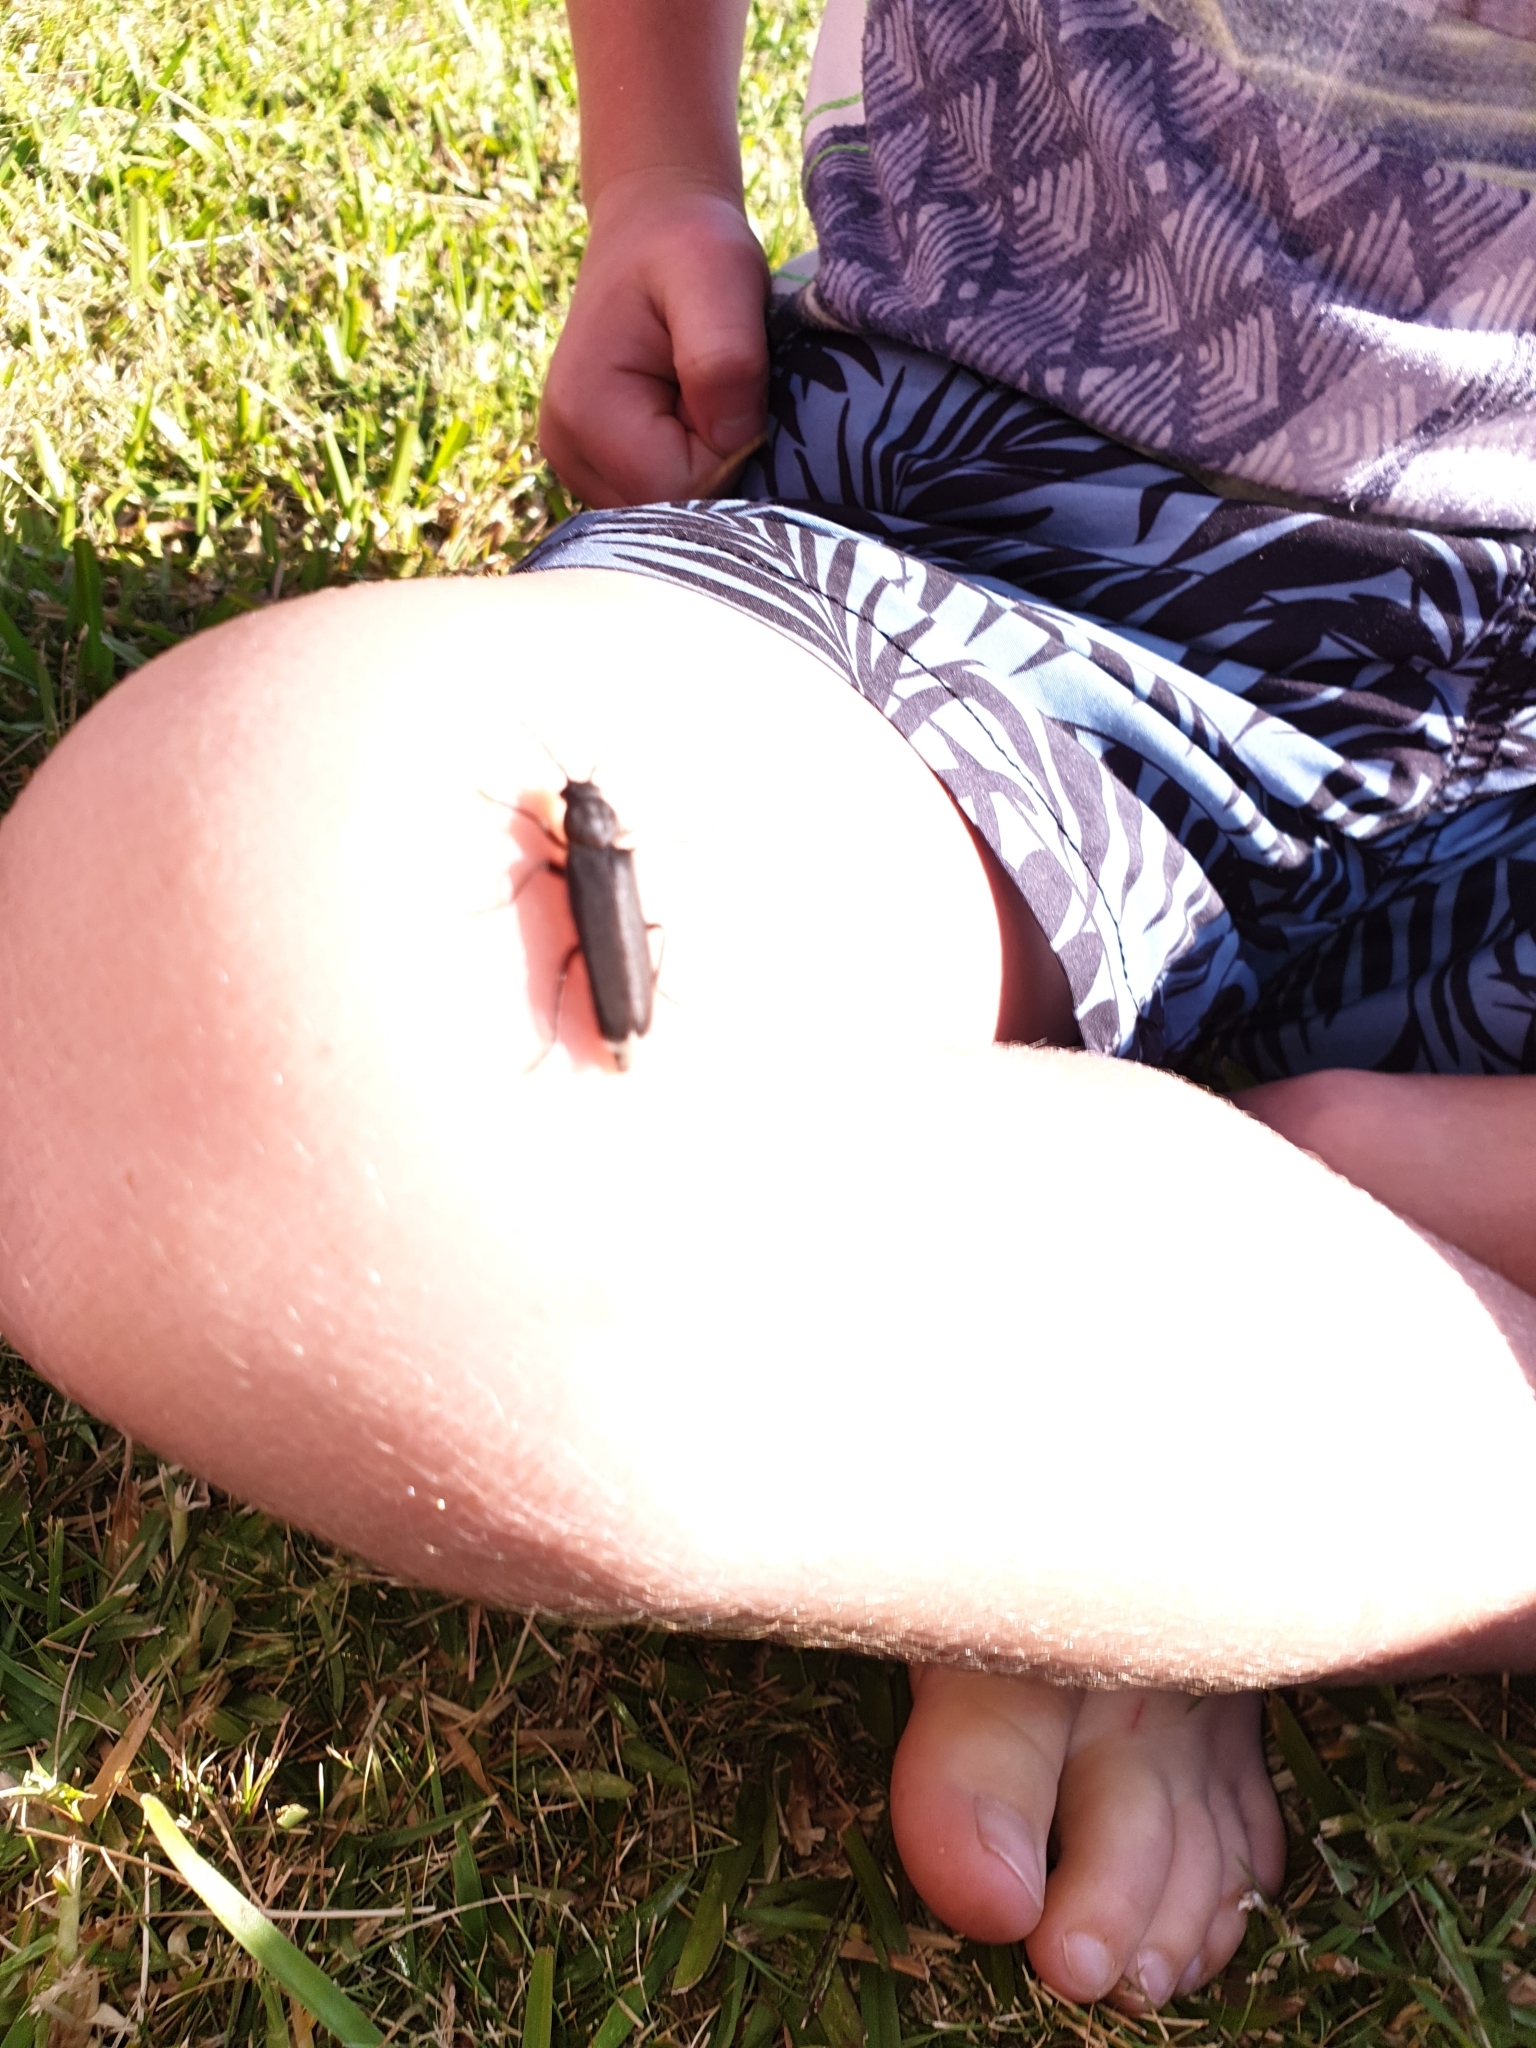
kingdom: Animalia
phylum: Arthropoda
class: Insecta
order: Coleoptera
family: Cerambycidae
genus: Arhopalus
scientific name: Arhopalus ferus
